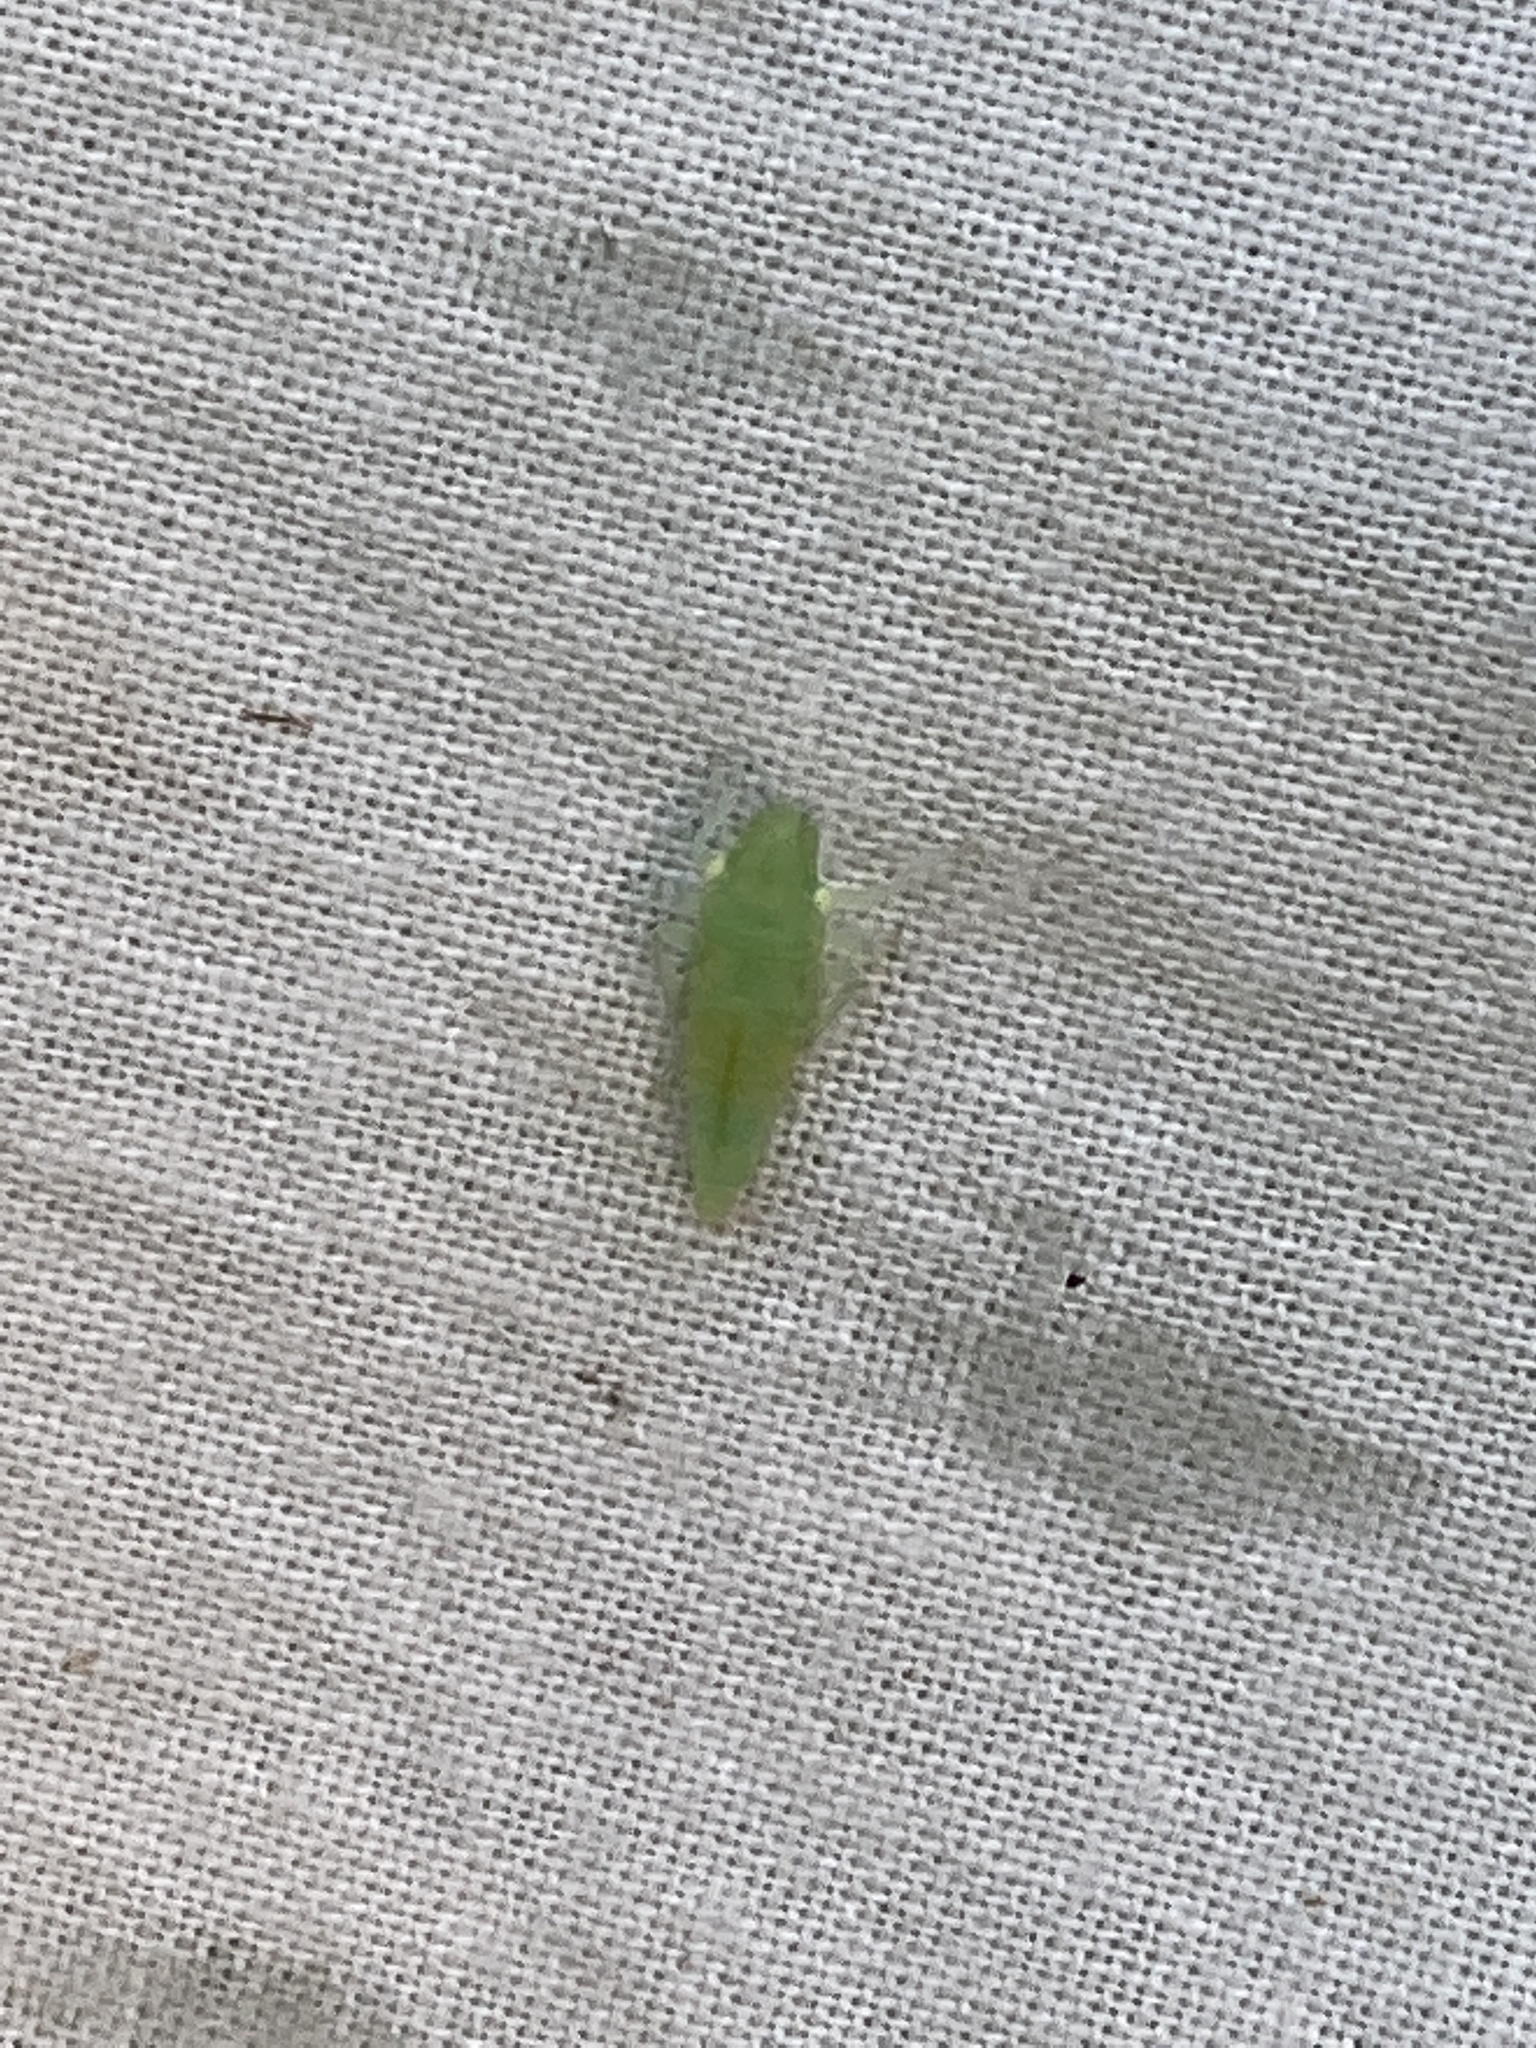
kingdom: Animalia
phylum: Arthropoda
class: Insecta
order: Hemiptera
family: Cicadellidae
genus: Paraulacizes
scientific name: Paraulacizes irrorata
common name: Speckled sharpshooter
